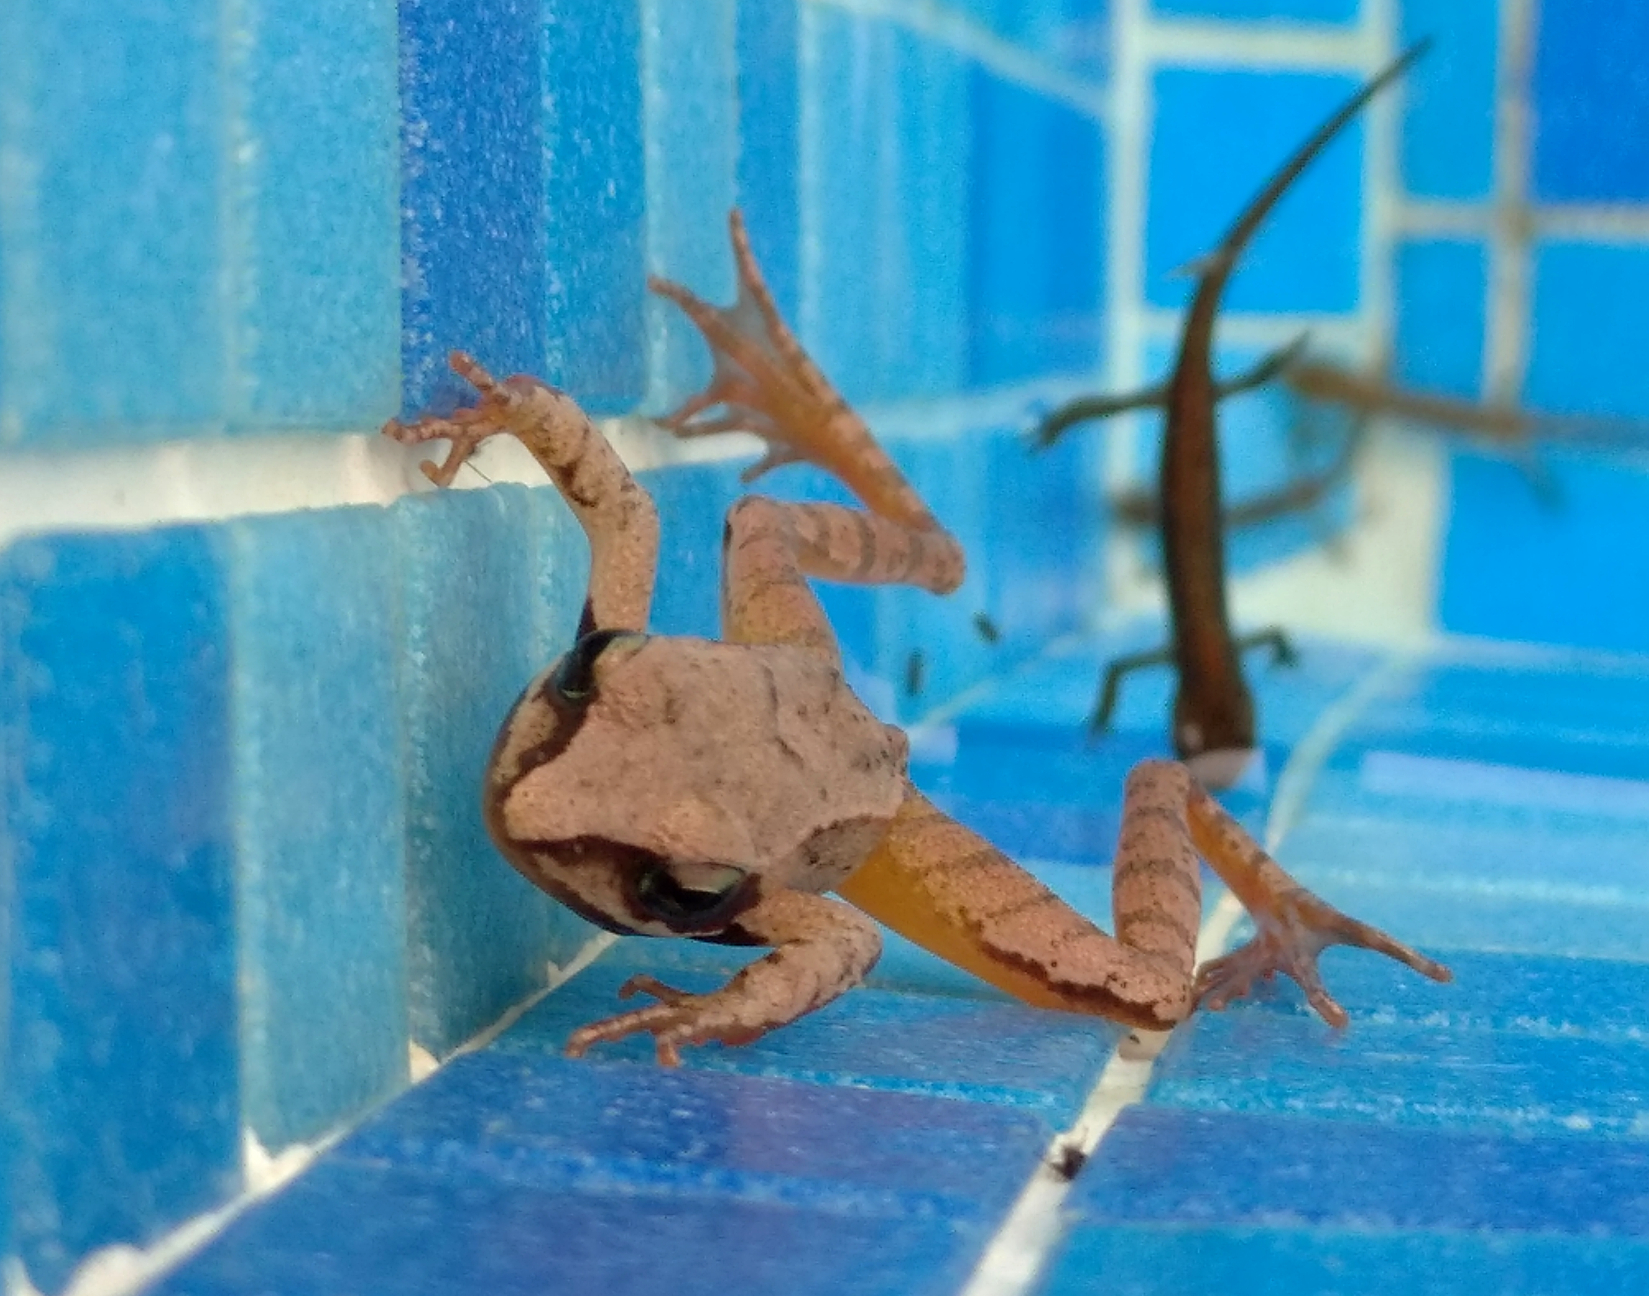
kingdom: Animalia
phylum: Chordata
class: Amphibia
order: Anura
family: Ranidae
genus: Rana
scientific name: Rana dalmatina
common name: Agile frog
